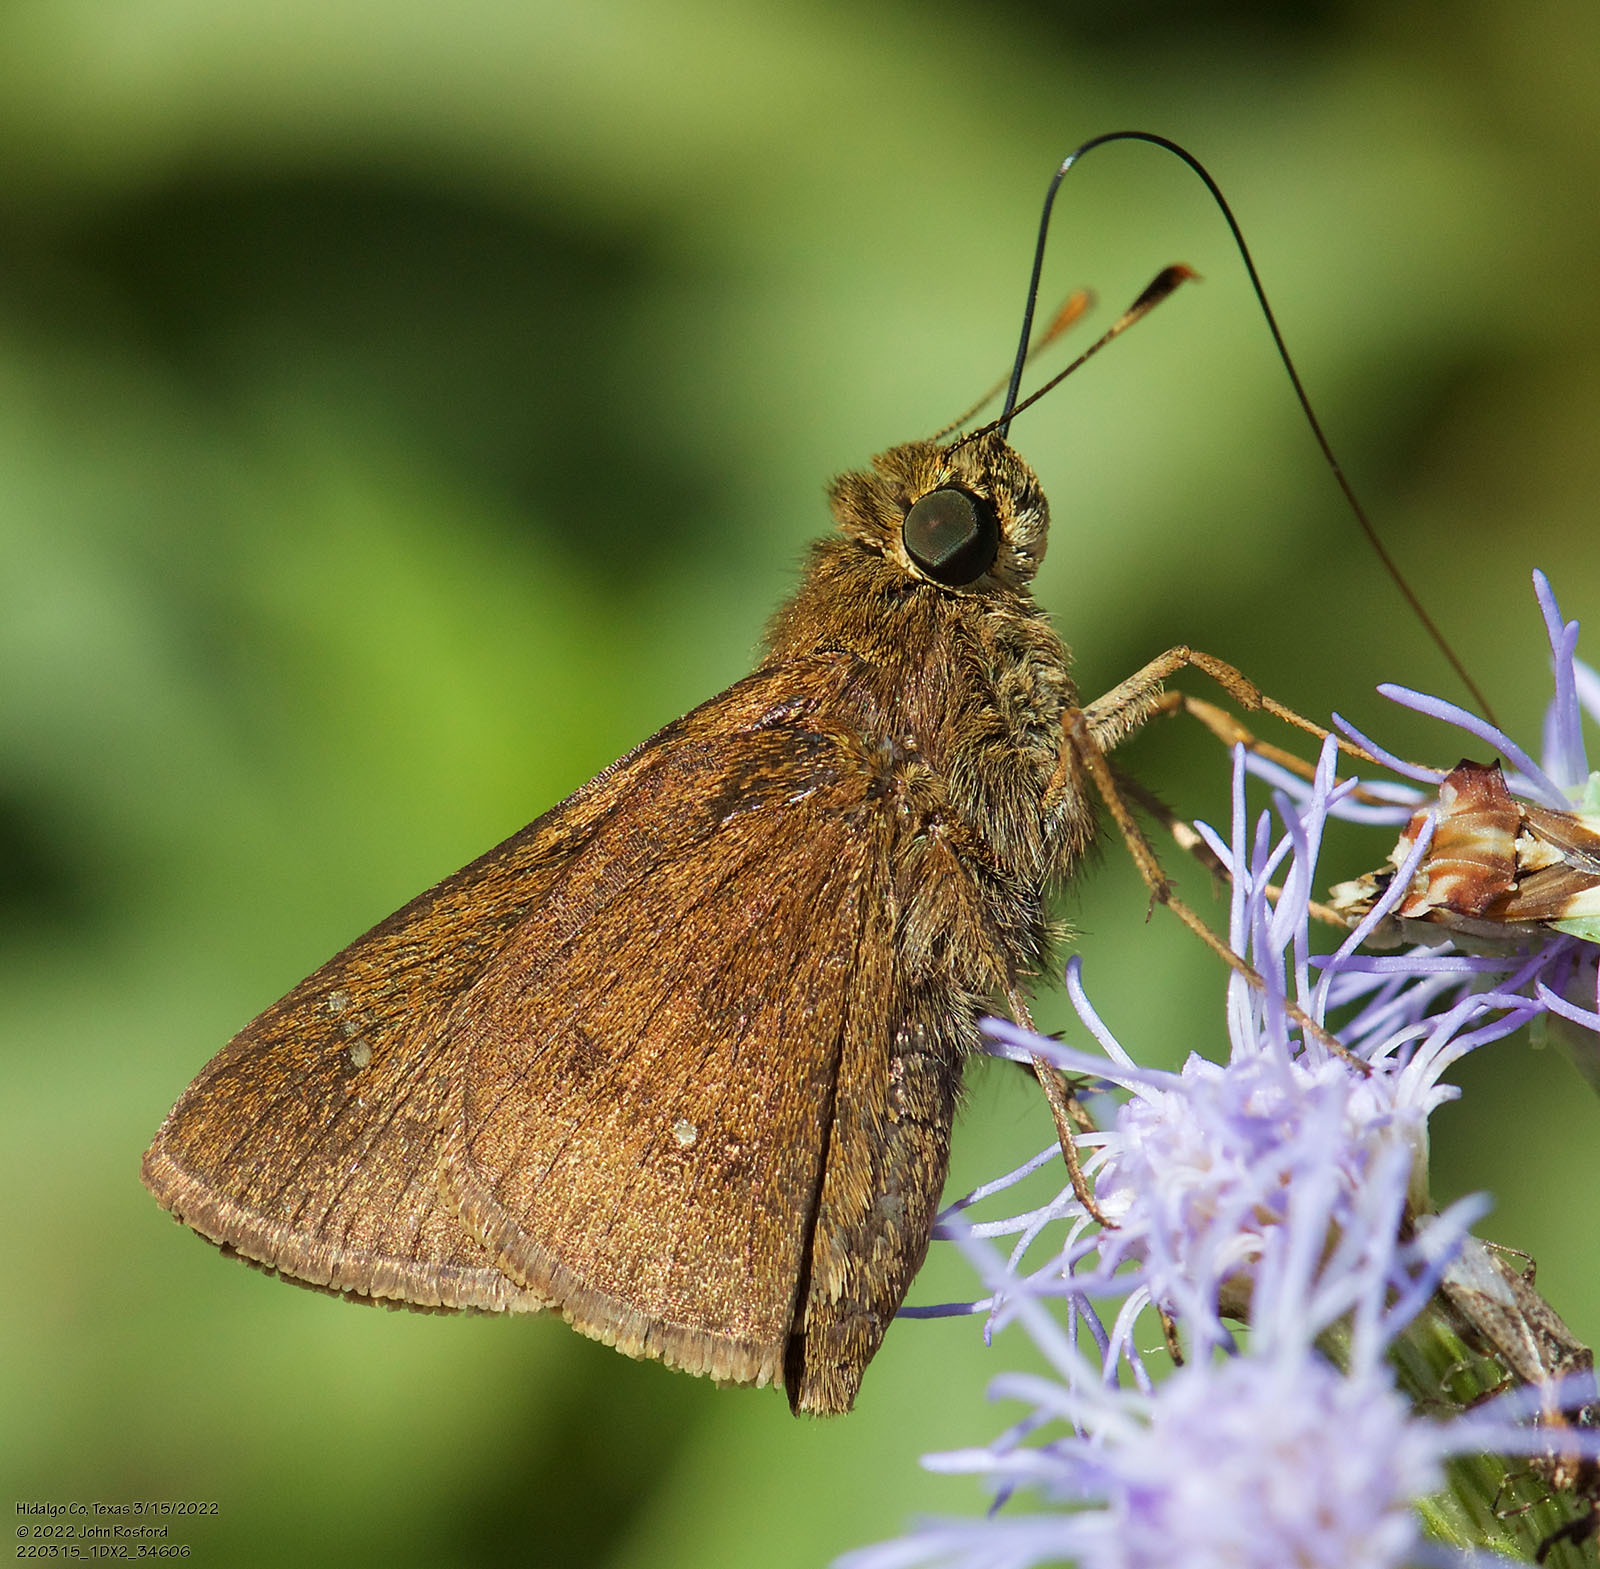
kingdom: Animalia
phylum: Arthropoda
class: Insecta
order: Lepidoptera
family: Hesperiidae
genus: Decinea
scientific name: Decinea percosius
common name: Double-dotted skipper
